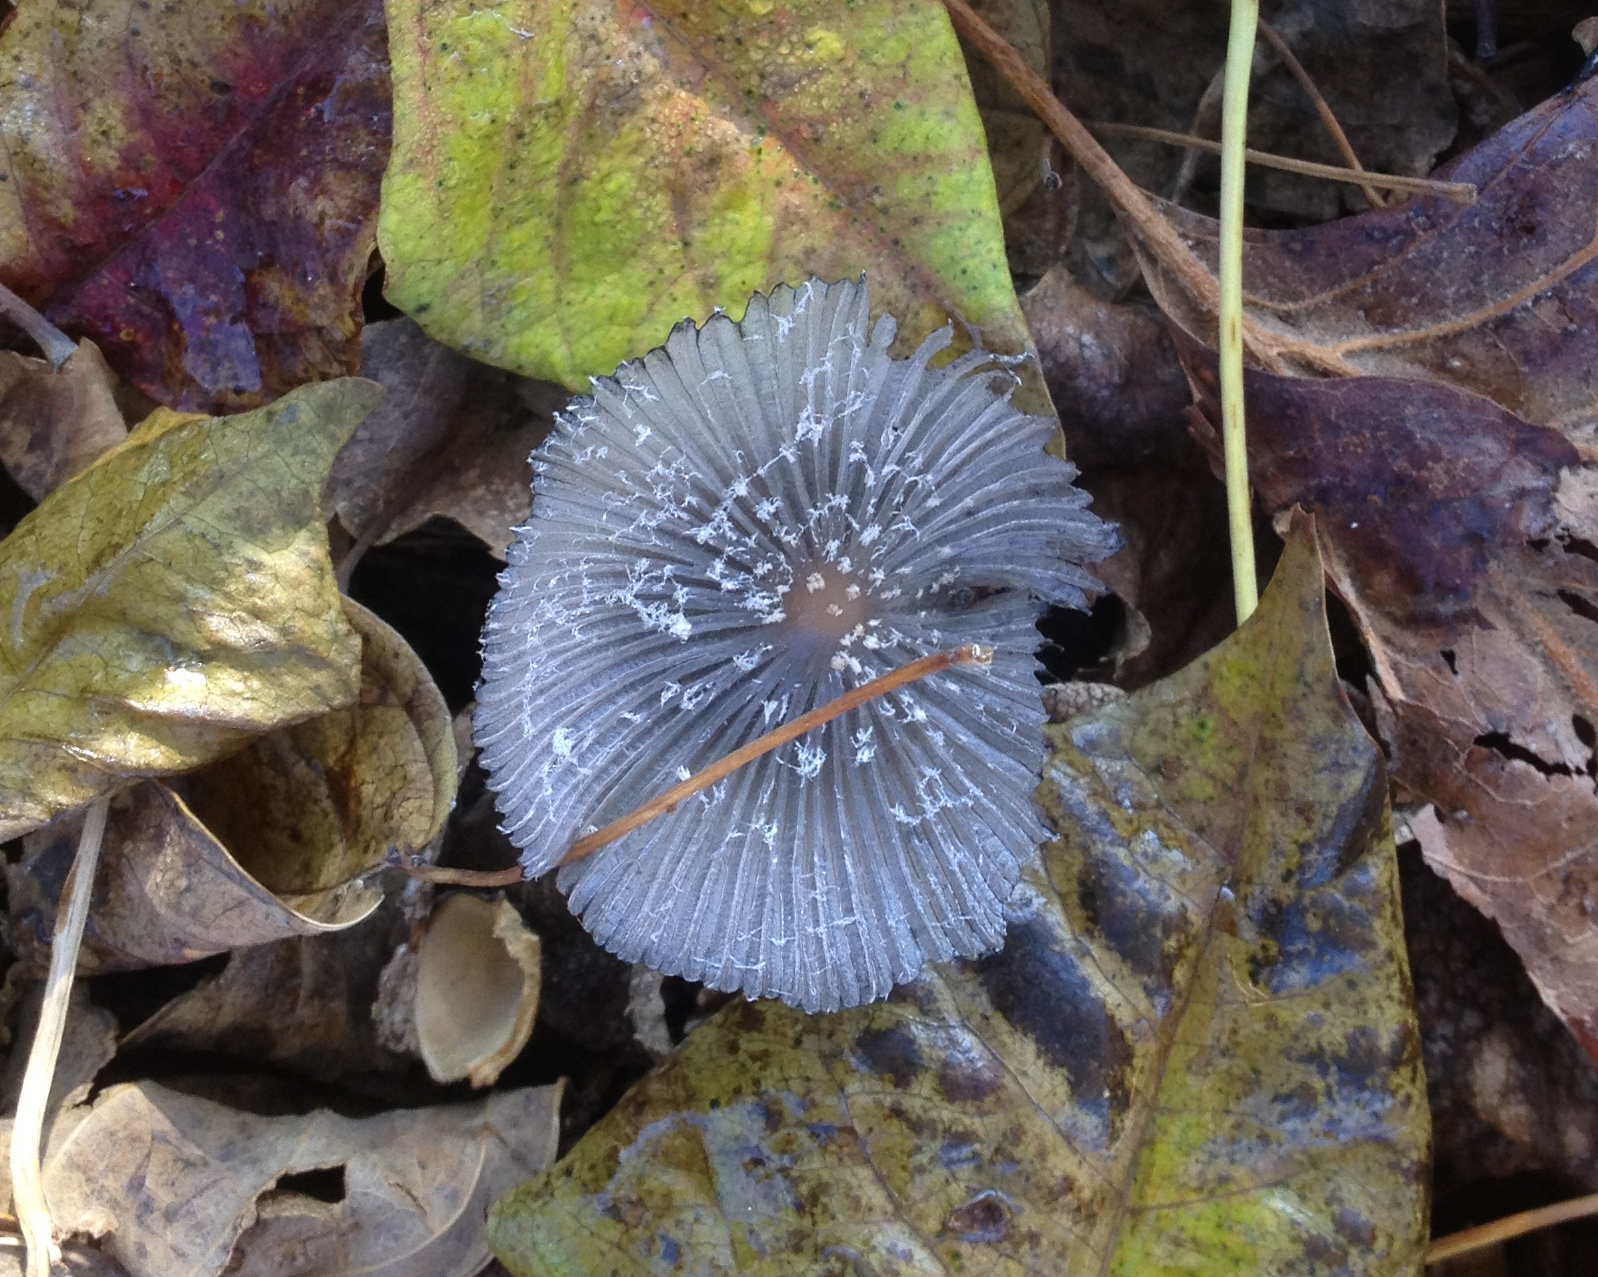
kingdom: Fungi
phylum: Basidiomycota
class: Agaricomycetes
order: Agaricales
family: Psathyrellaceae
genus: Coprinopsis
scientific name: Coprinopsis lagopus
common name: Hare'sfoot inkcap
